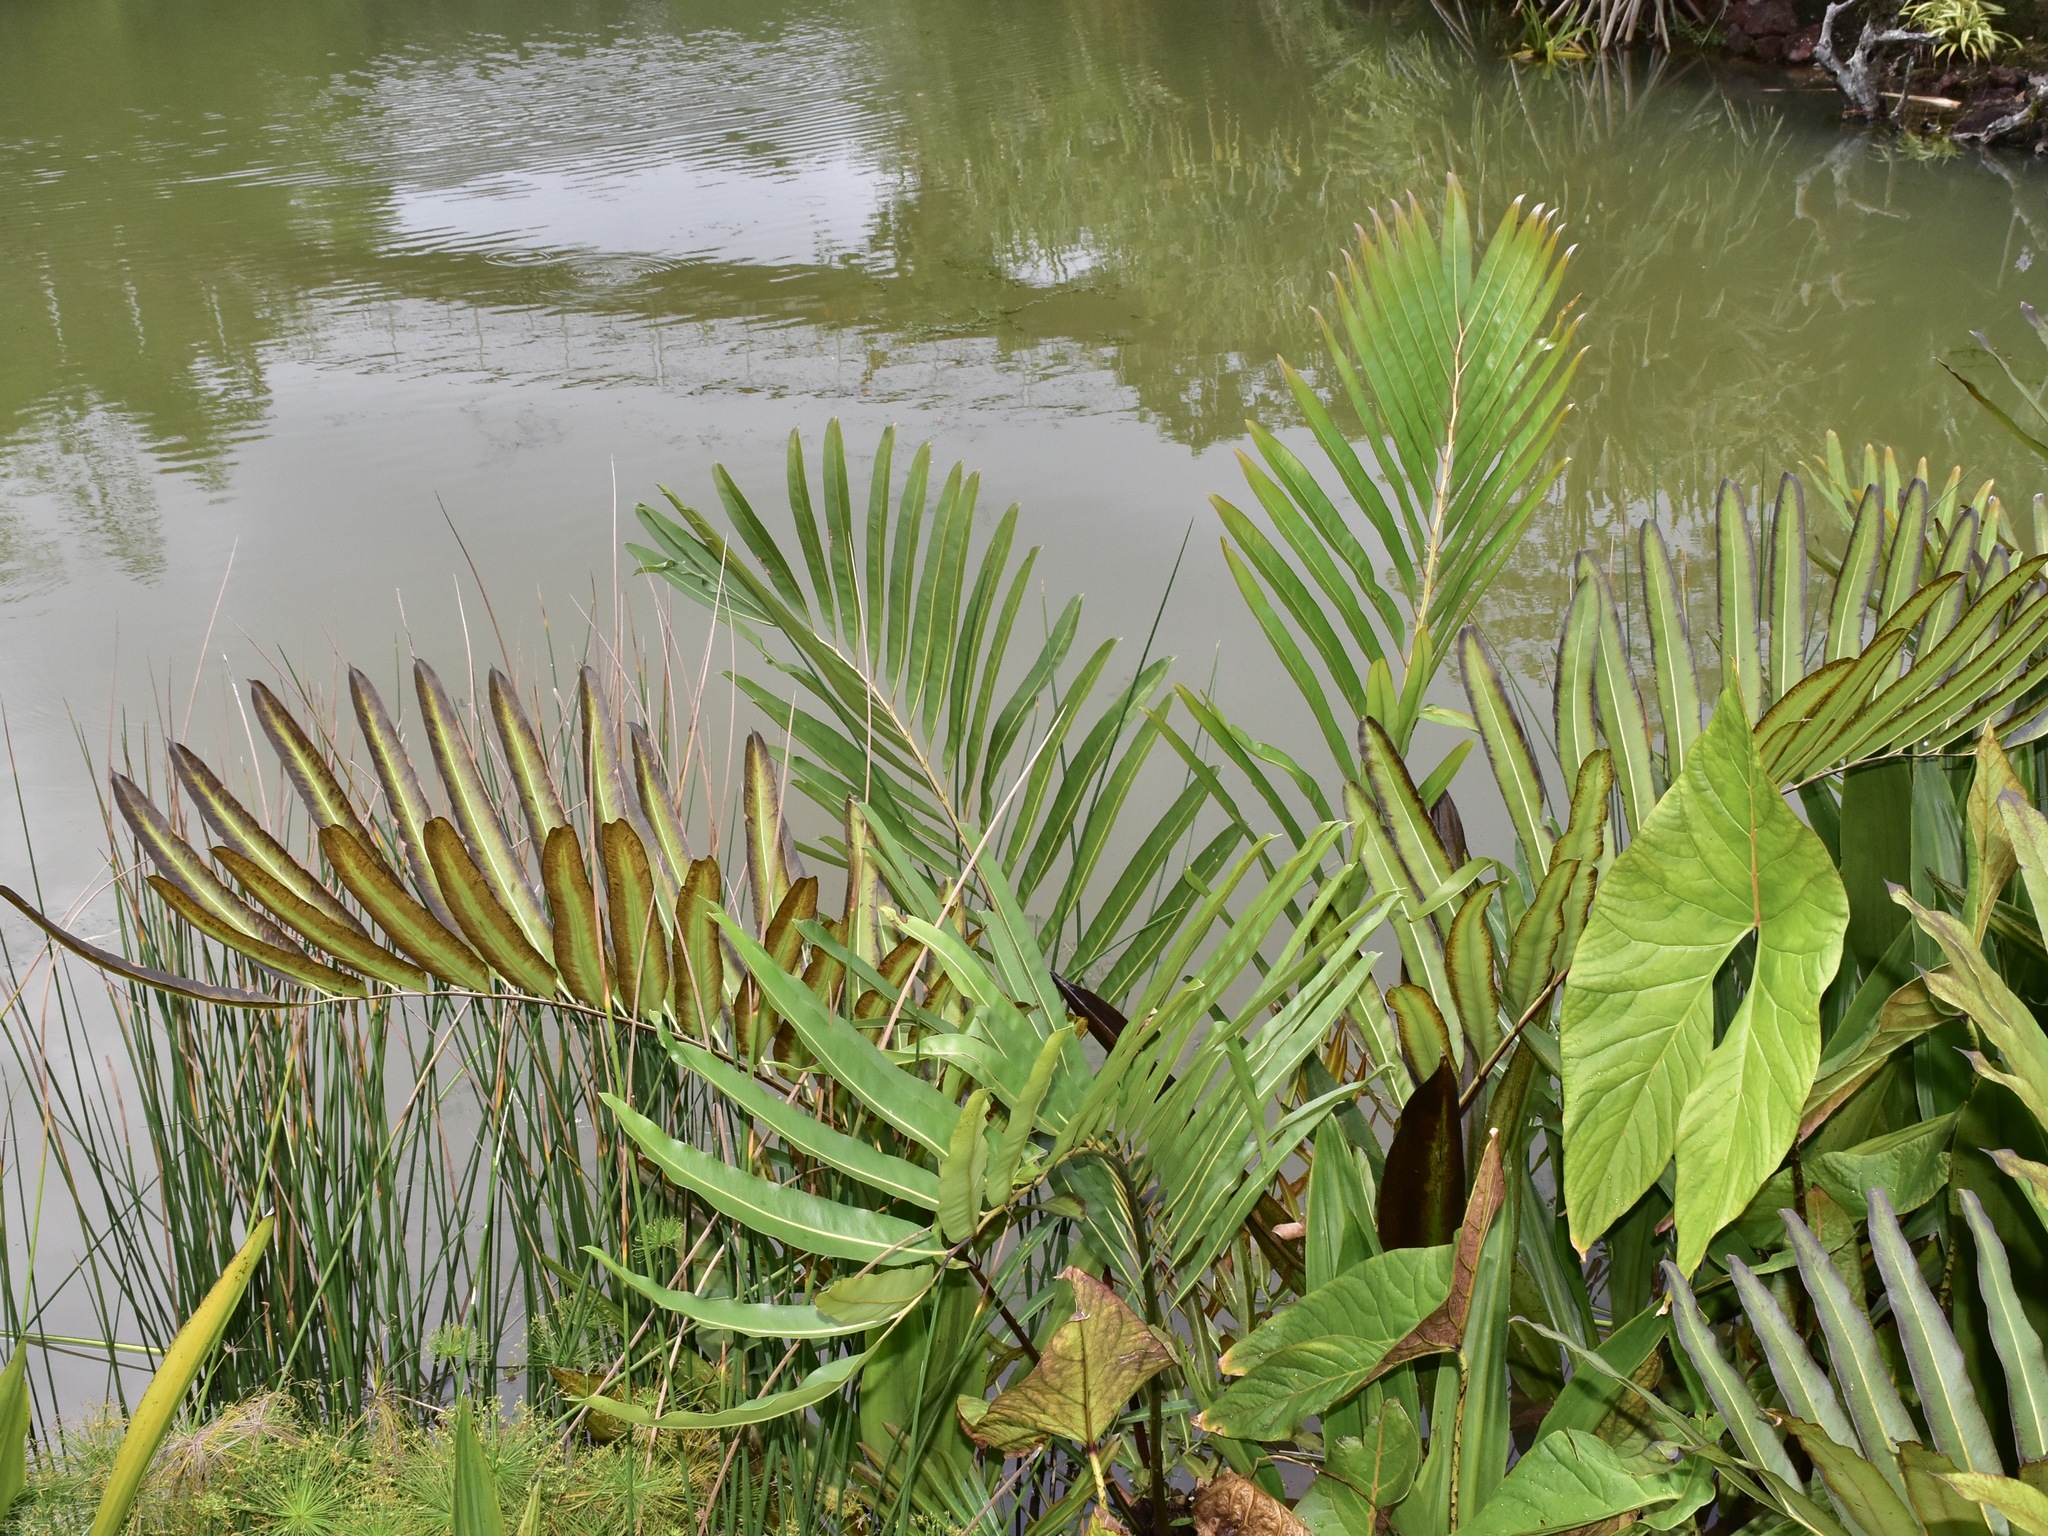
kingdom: Plantae
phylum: Tracheophyta
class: Polypodiopsida
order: Polypodiales
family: Pteridaceae
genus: Acrostichum
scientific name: Acrostichum aureum
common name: Leather fern
